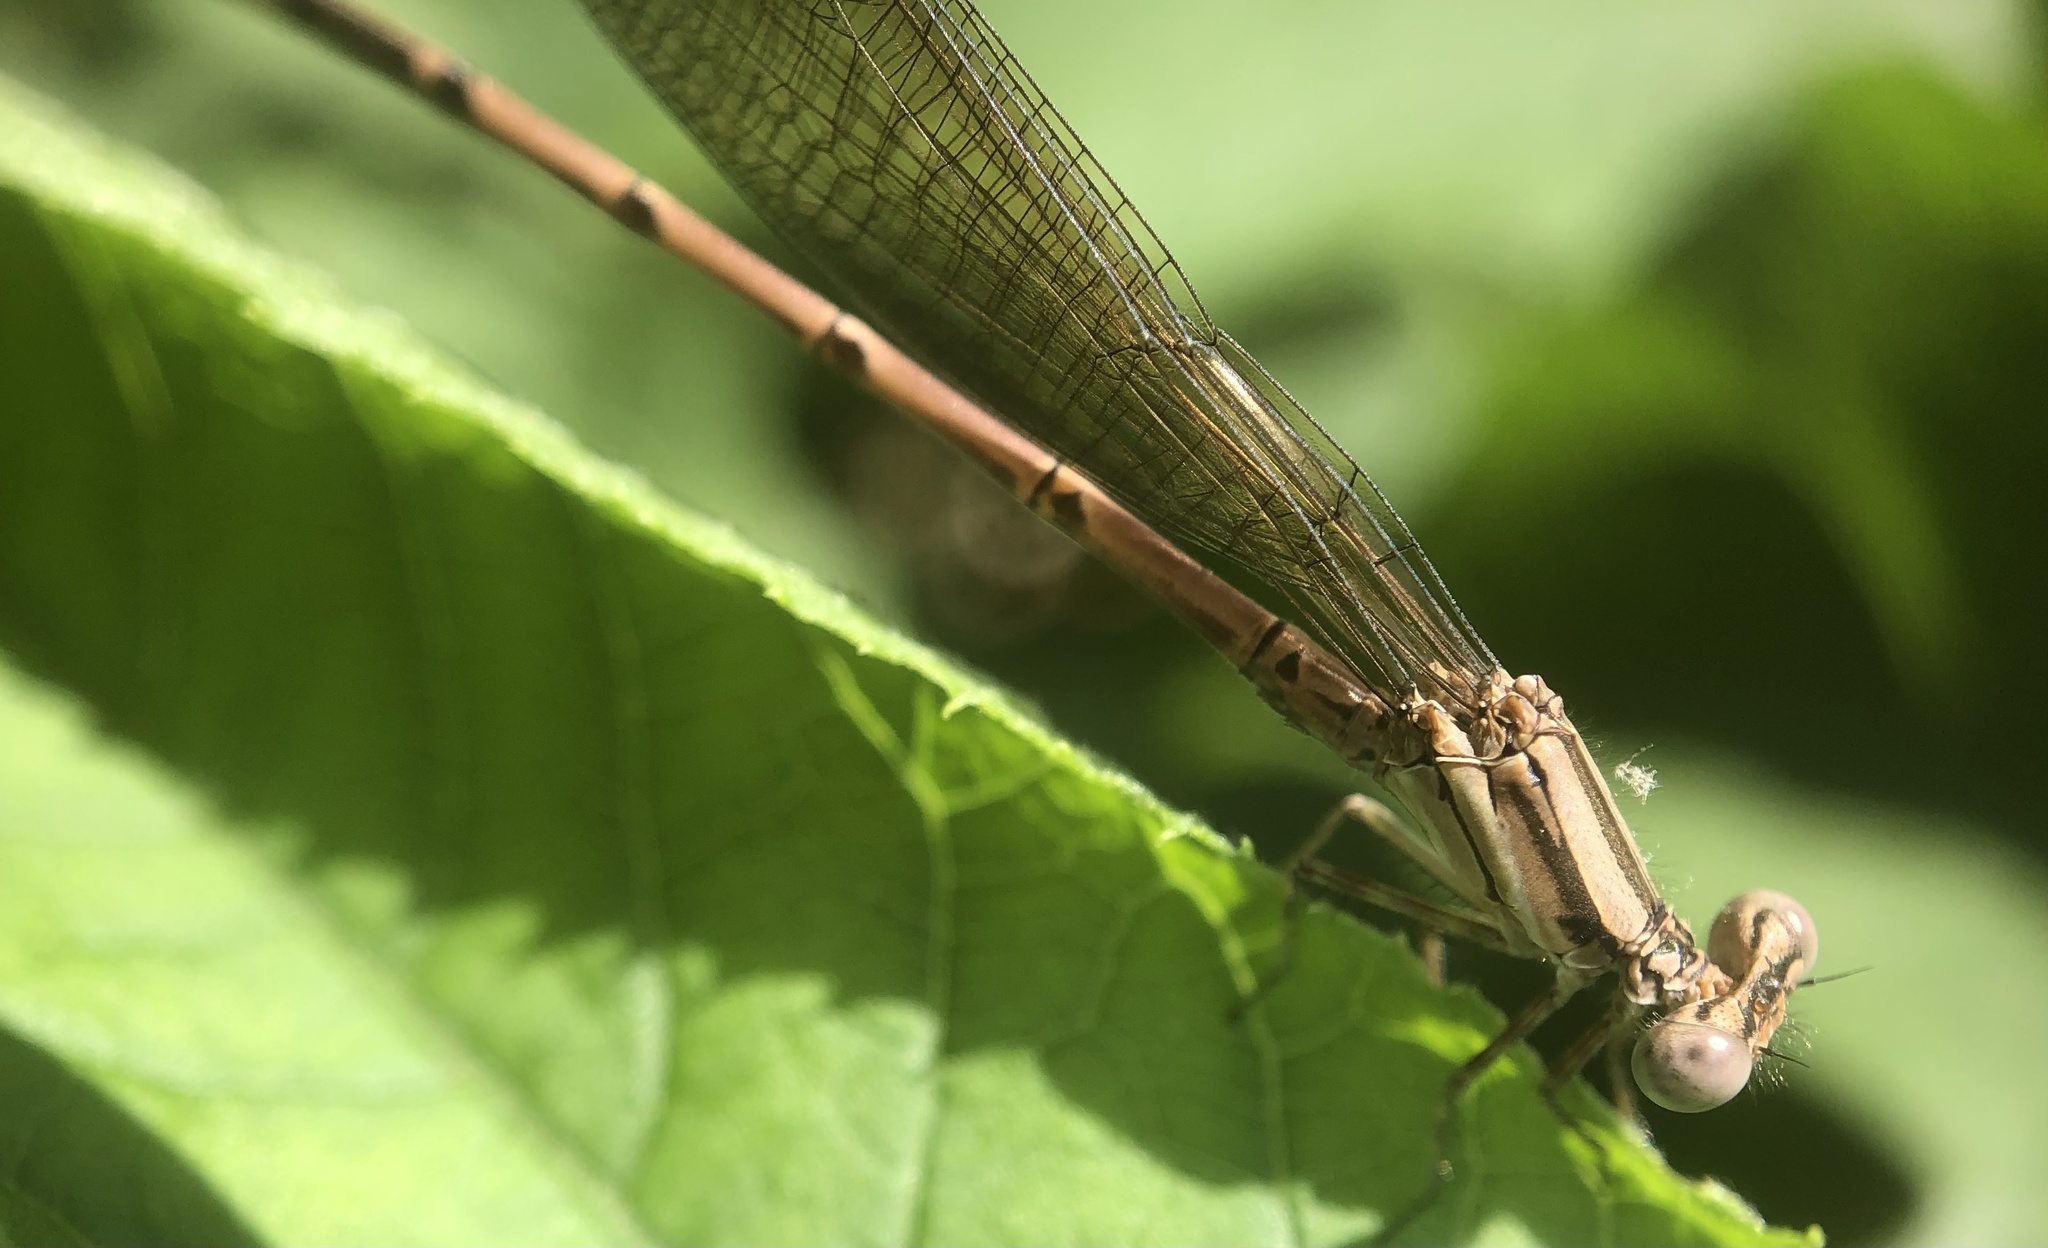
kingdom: Animalia
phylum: Arthropoda
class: Insecta
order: Odonata
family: Coenagrionidae
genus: Argia
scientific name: Argia fumipennis
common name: Variable dancer
